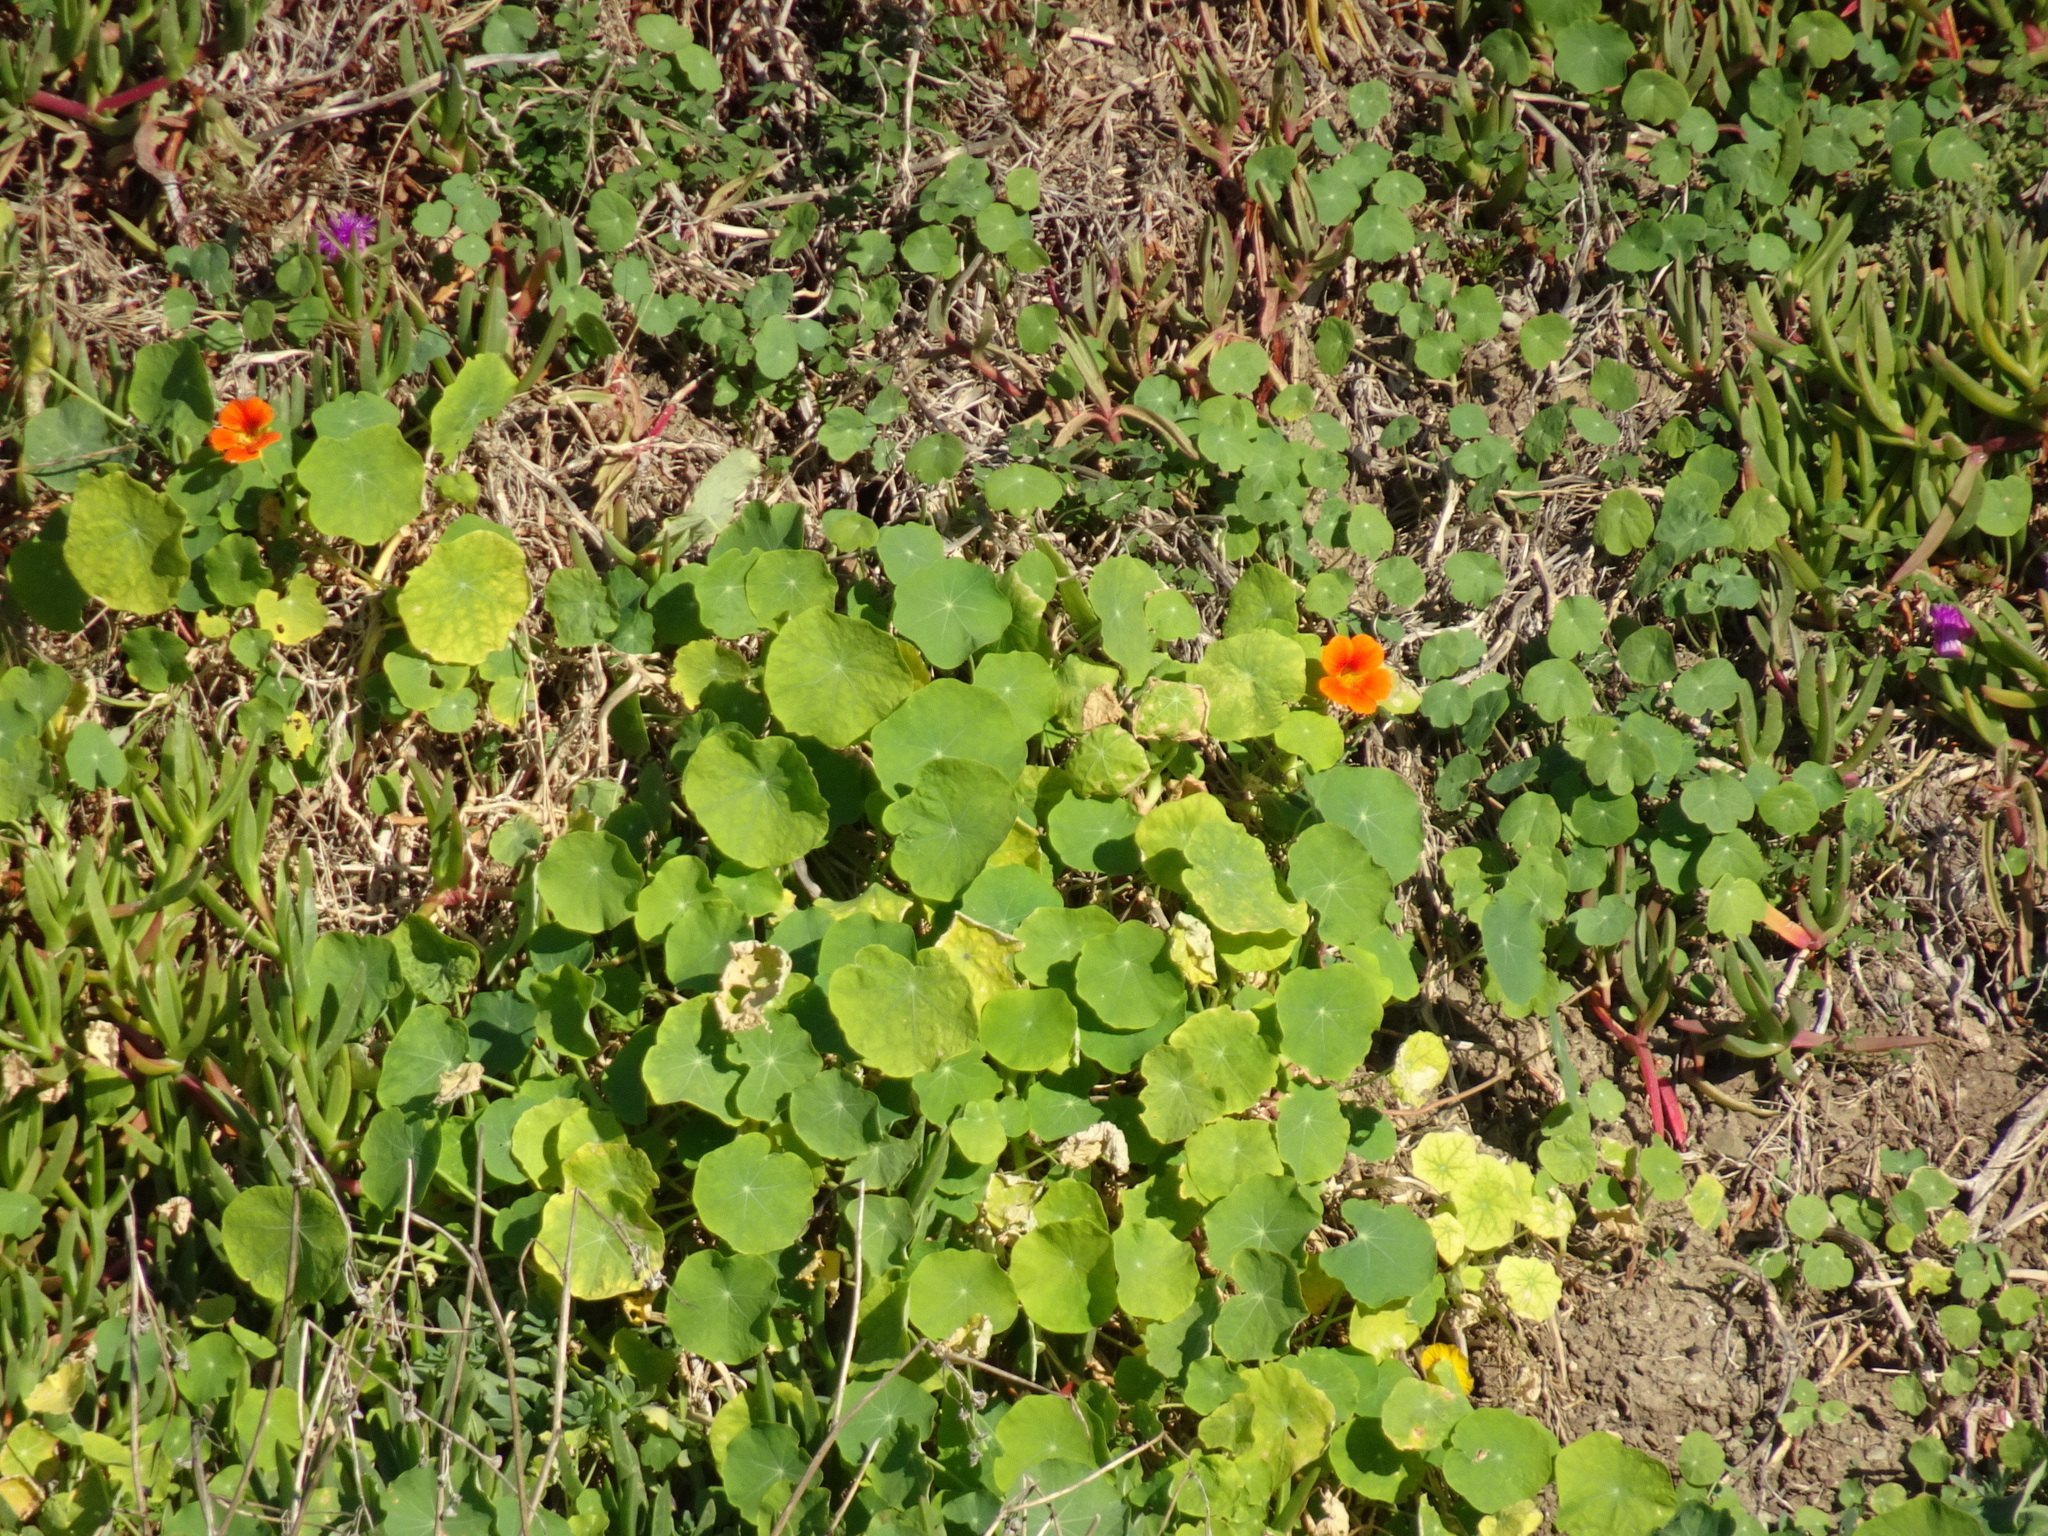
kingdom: Plantae
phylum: Tracheophyta
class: Magnoliopsida
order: Brassicales
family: Tropaeolaceae
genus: Tropaeolum
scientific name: Tropaeolum majus
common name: Nasturtium
